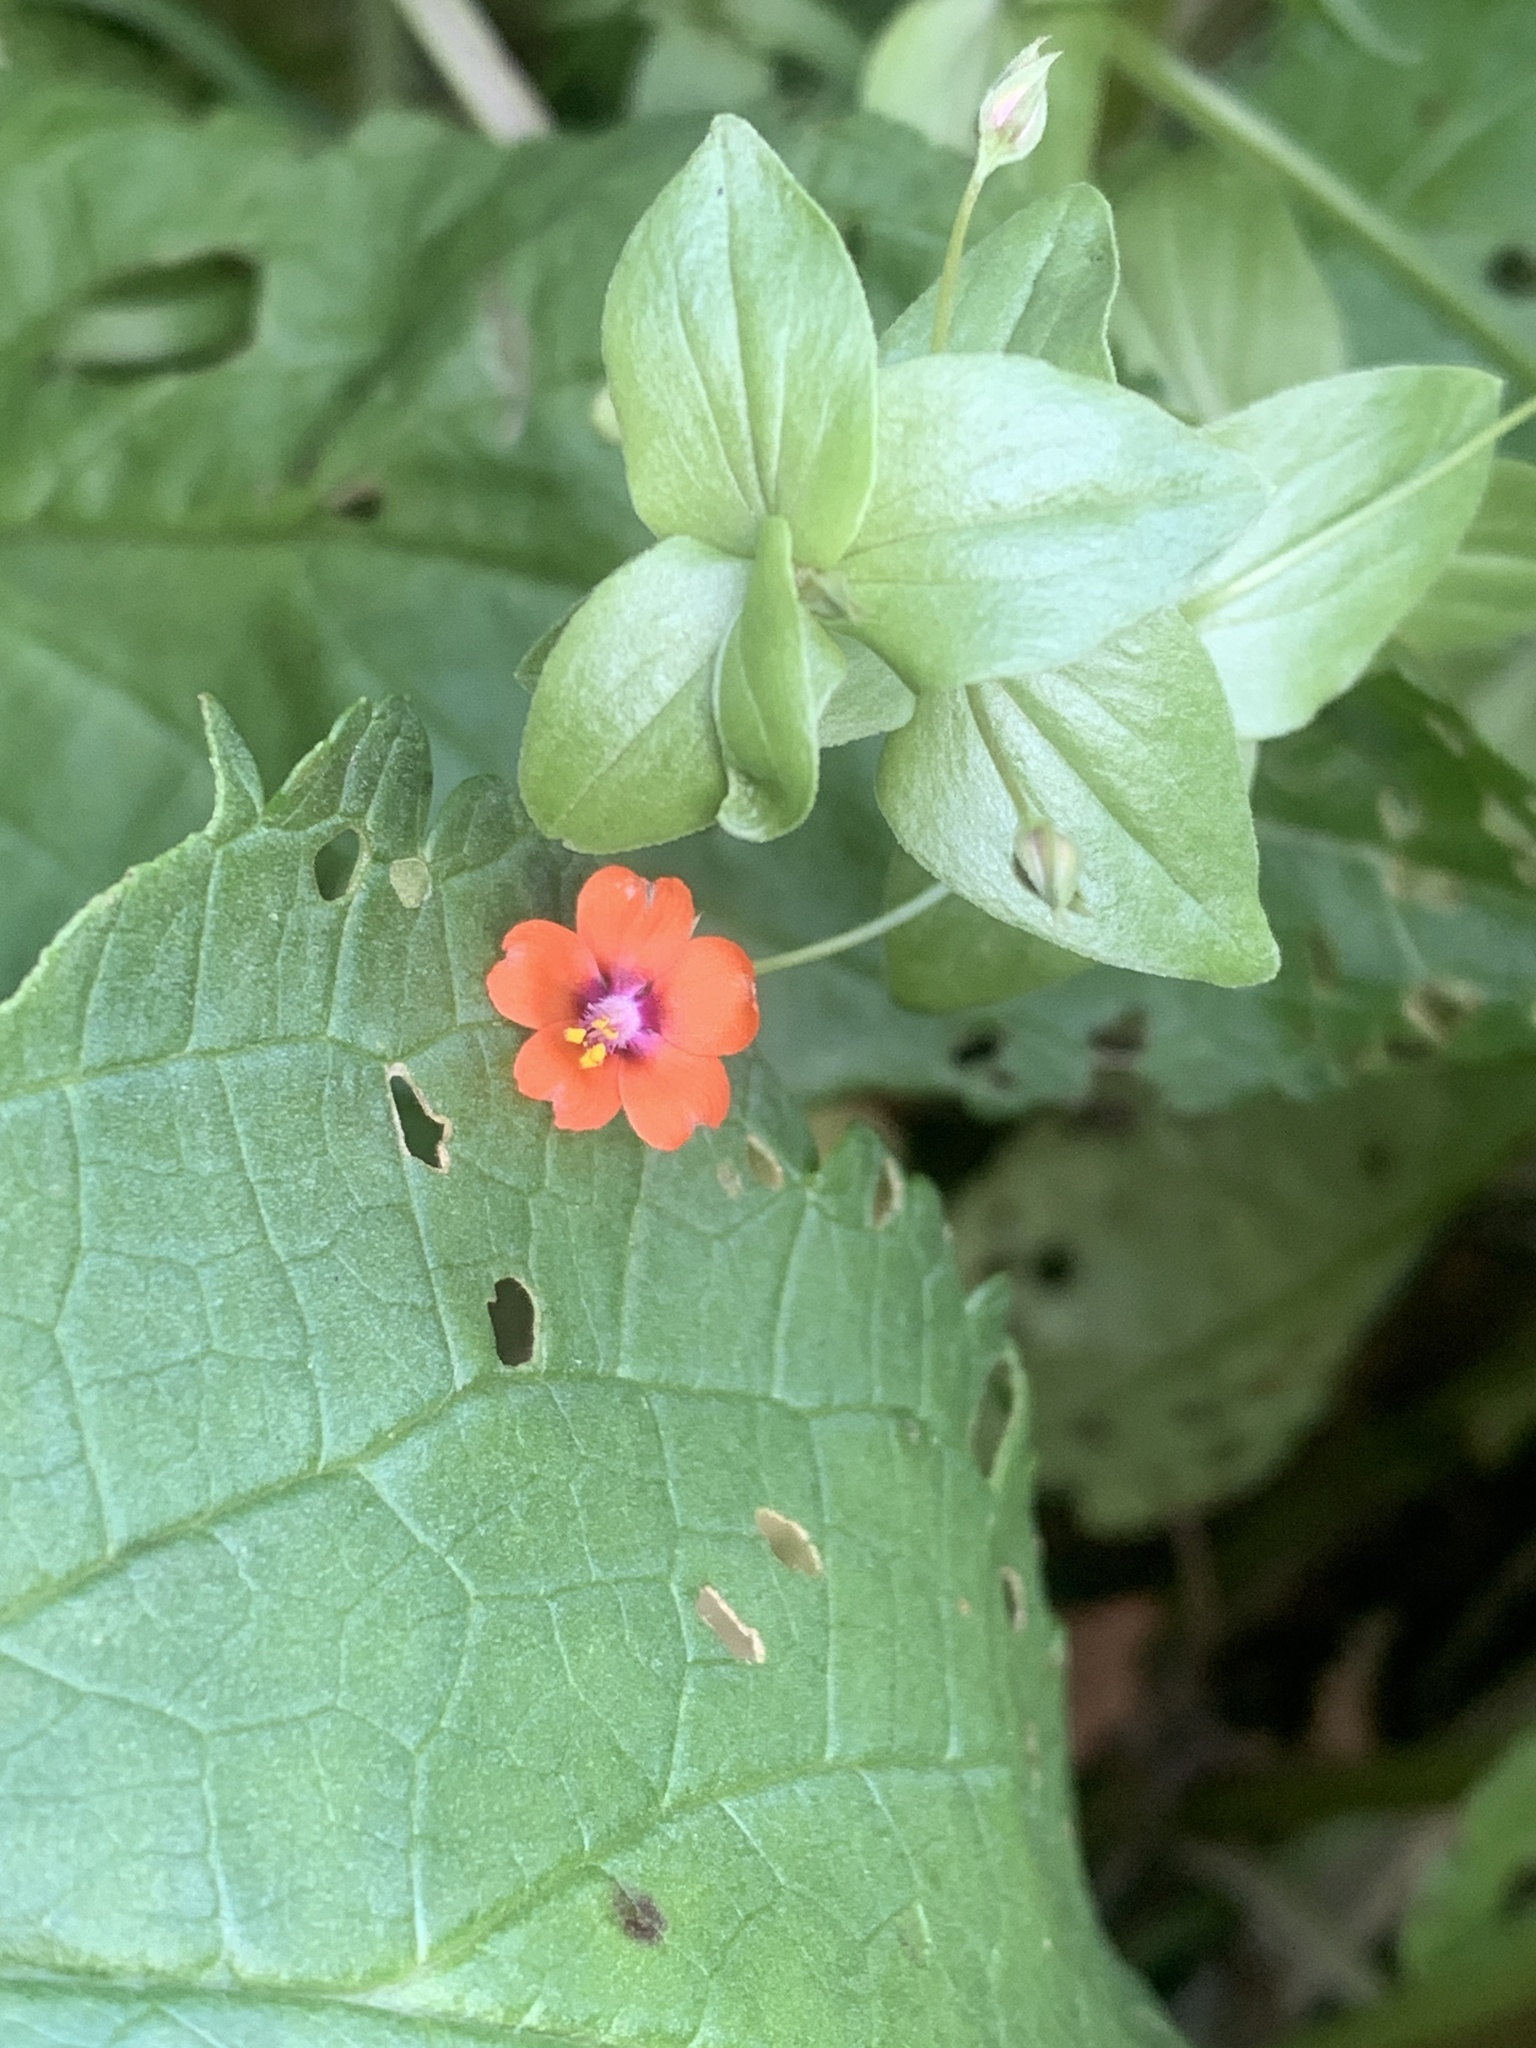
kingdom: Plantae
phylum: Tracheophyta
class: Magnoliopsida
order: Ericales
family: Primulaceae
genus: Lysimachia
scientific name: Lysimachia arvensis
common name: Scarlet pimpernel
